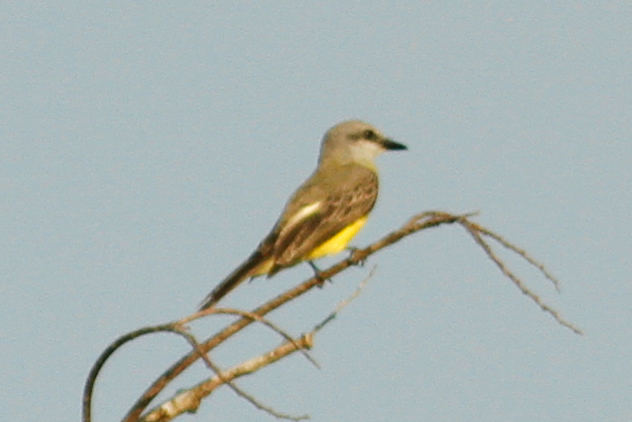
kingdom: Animalia
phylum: Chordata
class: Aves
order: Passeriformes
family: Tyrannidae
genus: Tyrannus
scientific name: Tyrannus melancholicus
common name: Tropical kingbird
